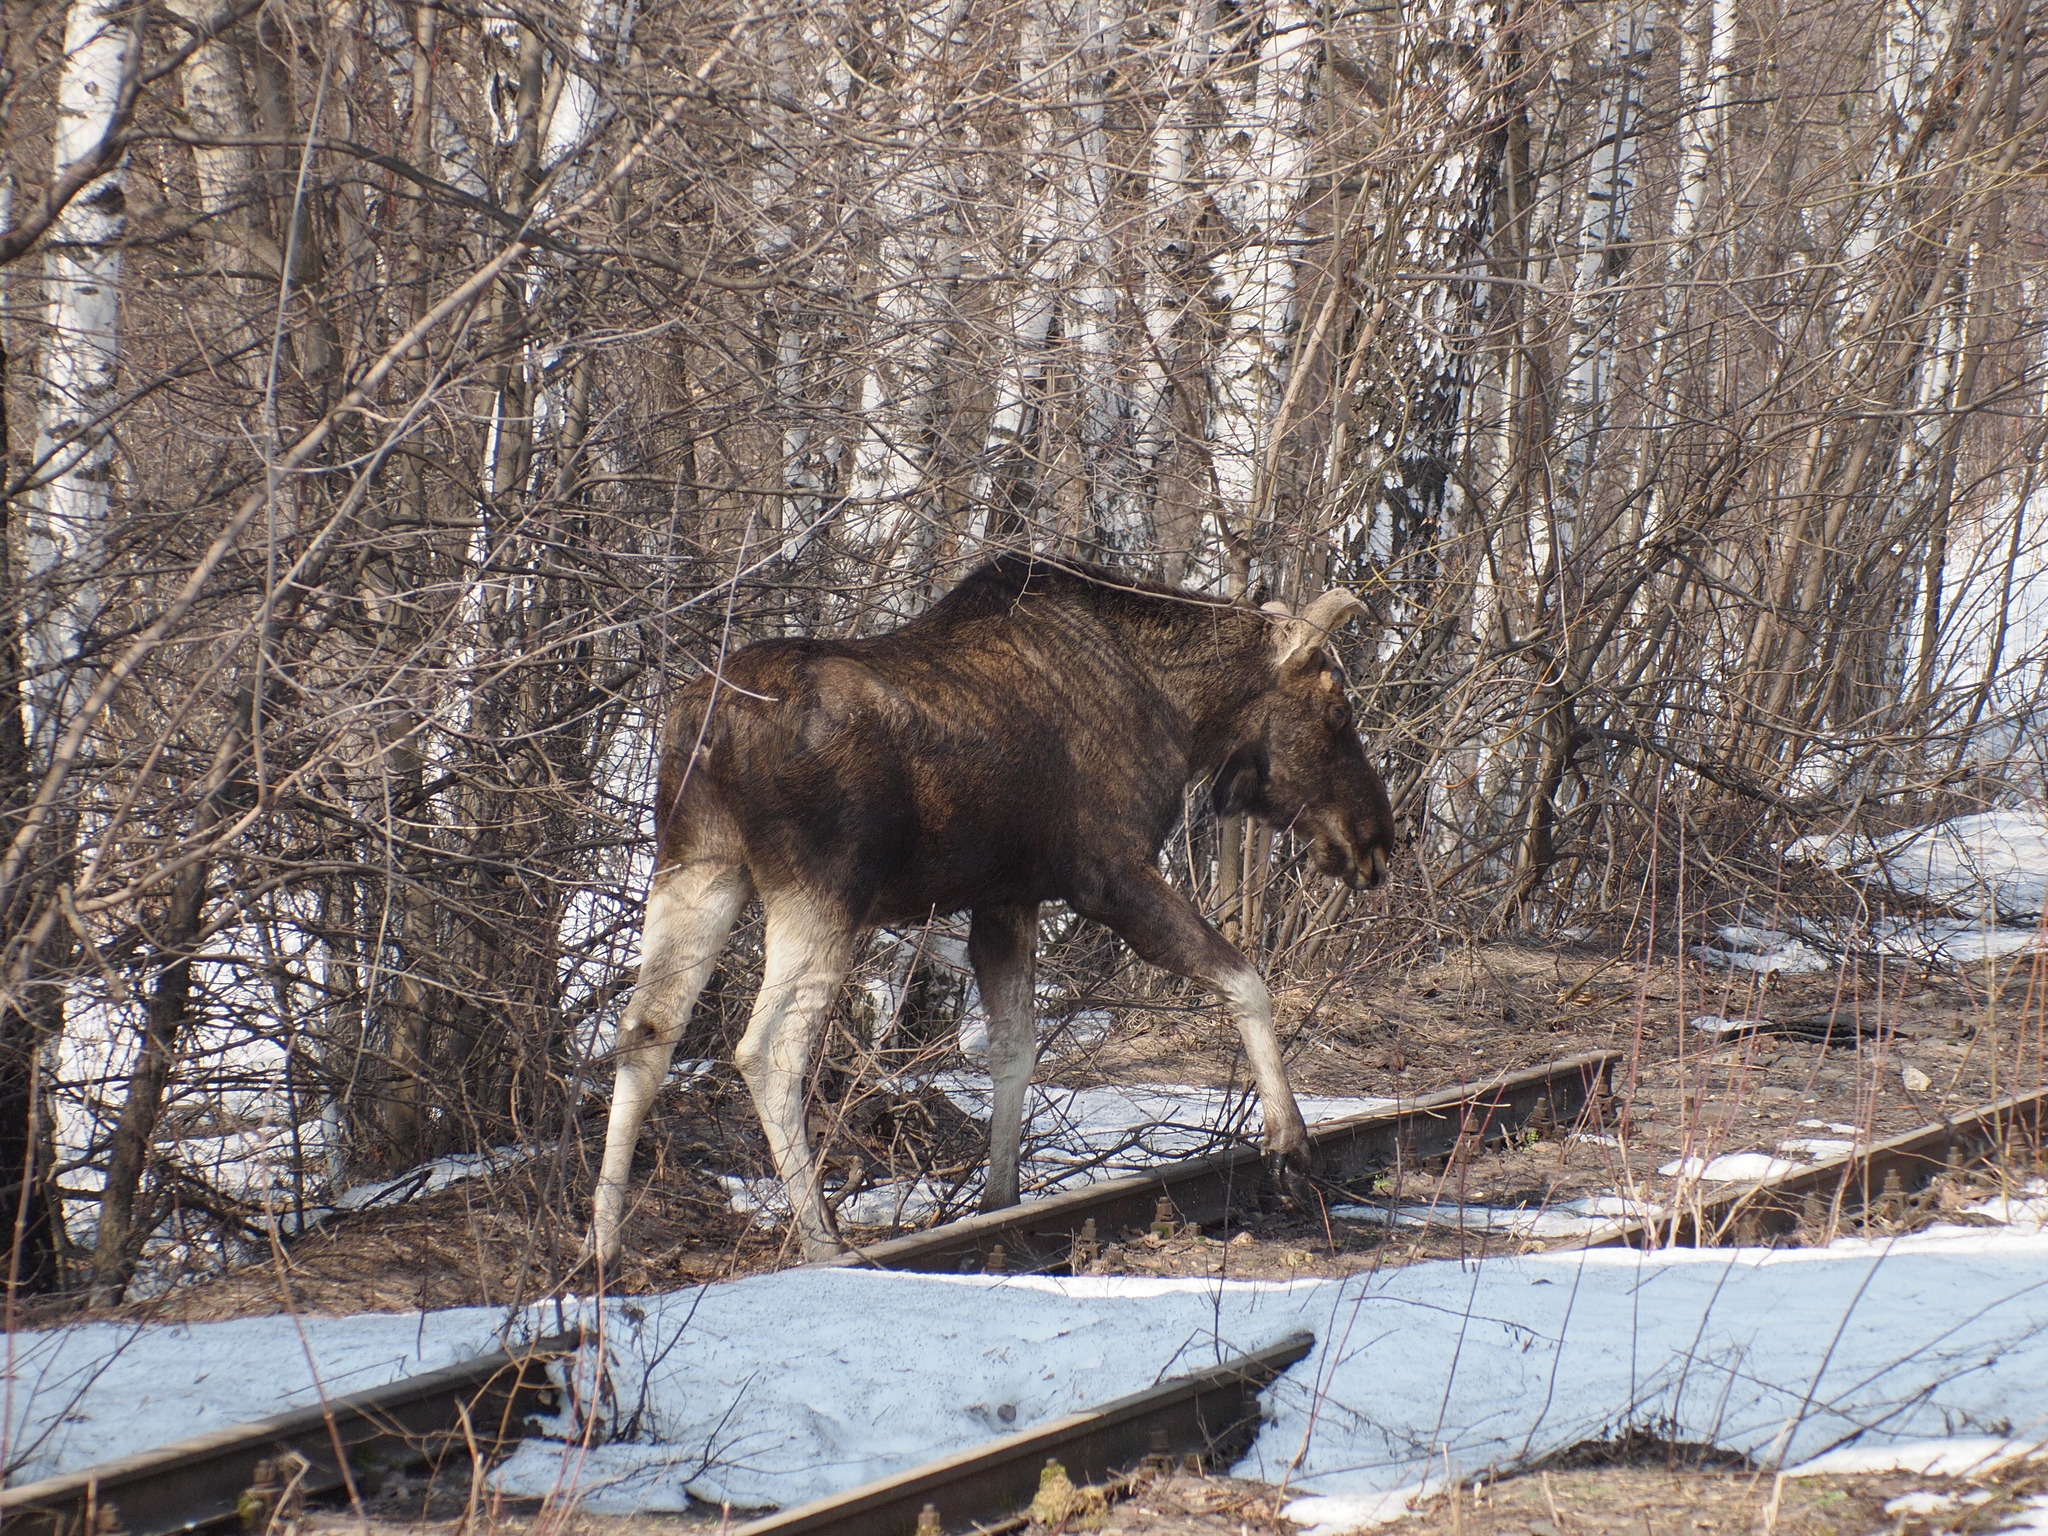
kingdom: Animalia
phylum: Chordata
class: Mammalia
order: Artiodactyla
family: Cervidae
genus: Alces
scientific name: Alces alces
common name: Moose
